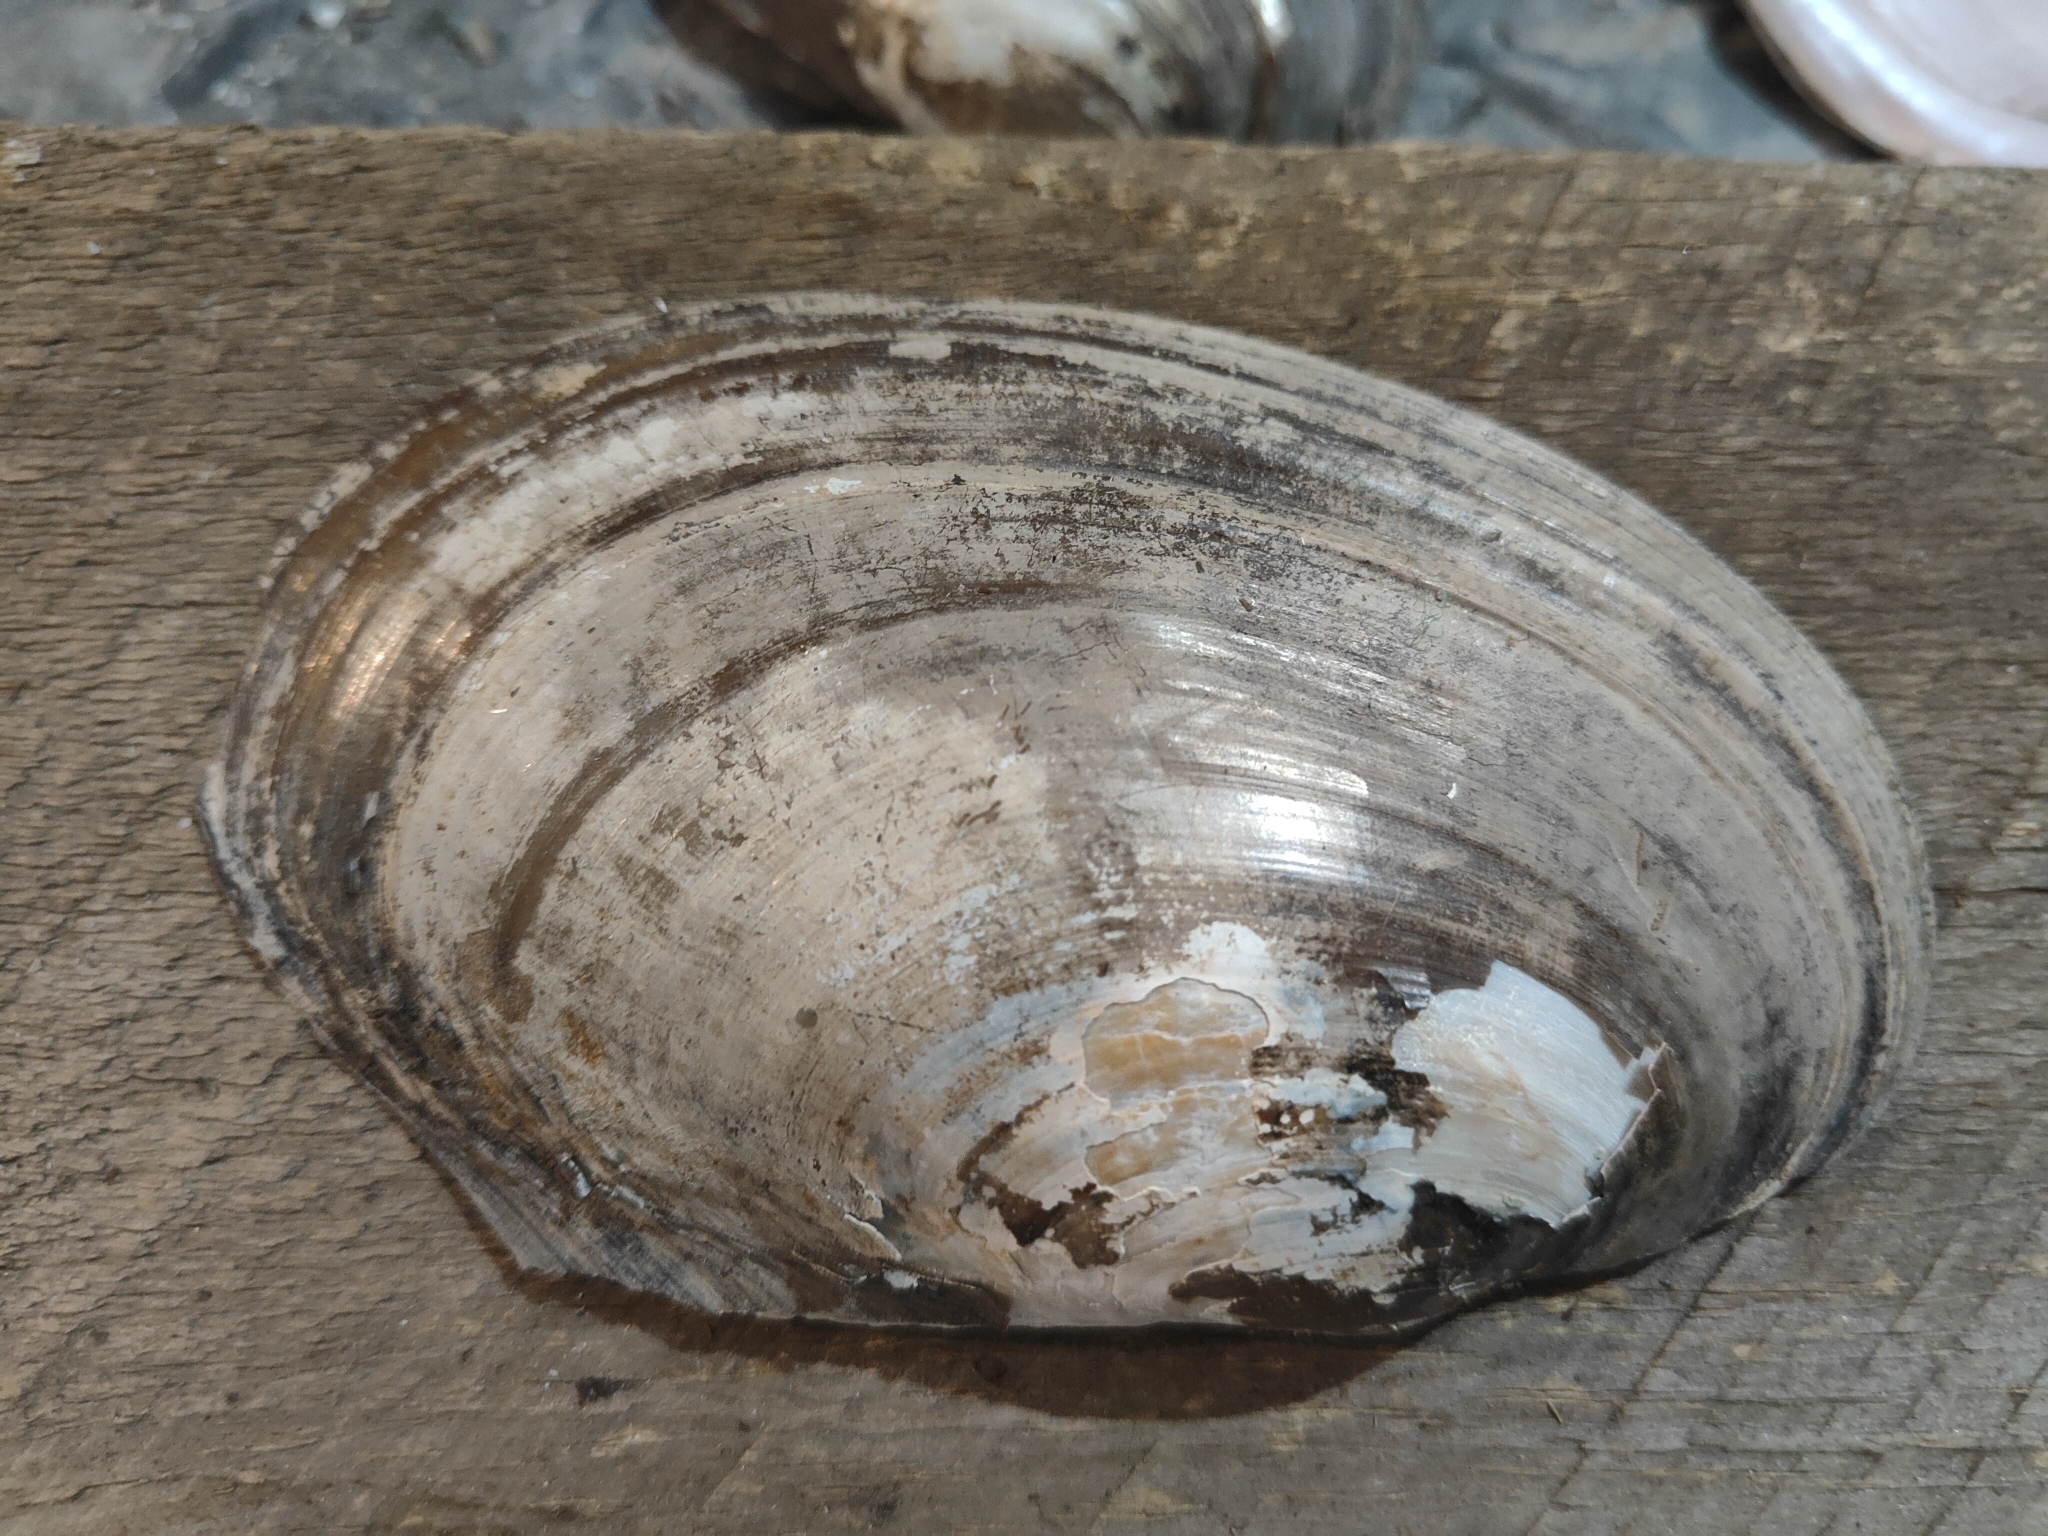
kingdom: Animalia
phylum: Mollusca
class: Bivalvia
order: Unionida
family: Unionidae
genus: Potamilus
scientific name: Potamilus fragilis
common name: Fragile papershell
